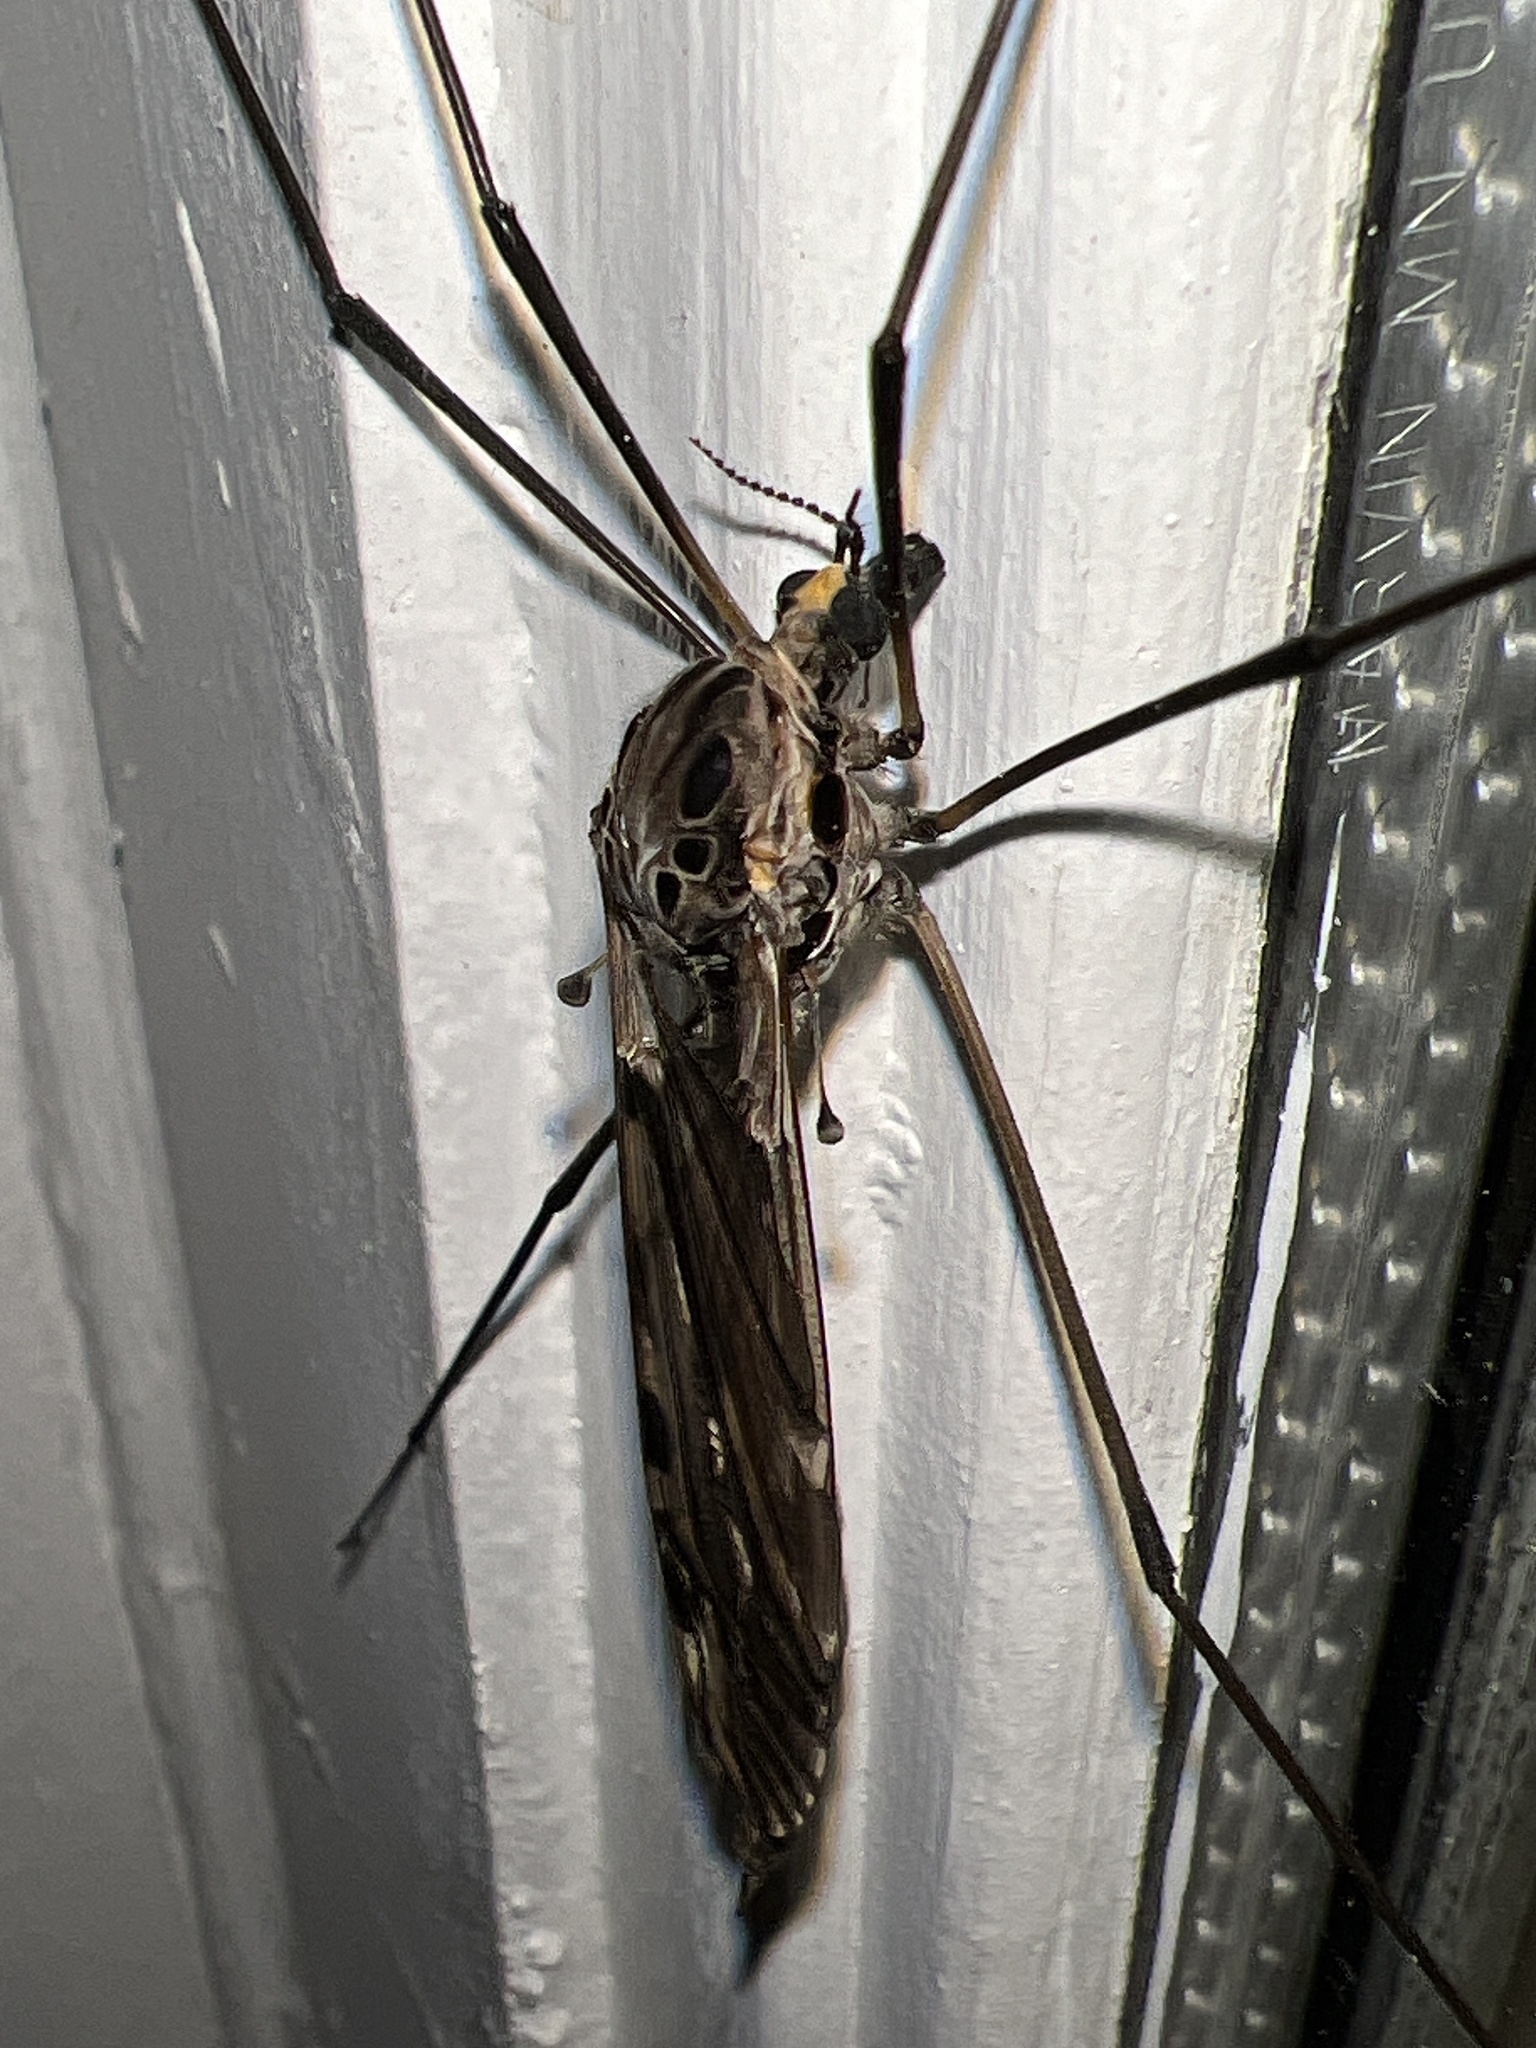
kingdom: Animalia
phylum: Arthropoda
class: Insecta
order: Diptera
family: Tipulidae
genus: Tipula
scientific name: Tipula metacomet
